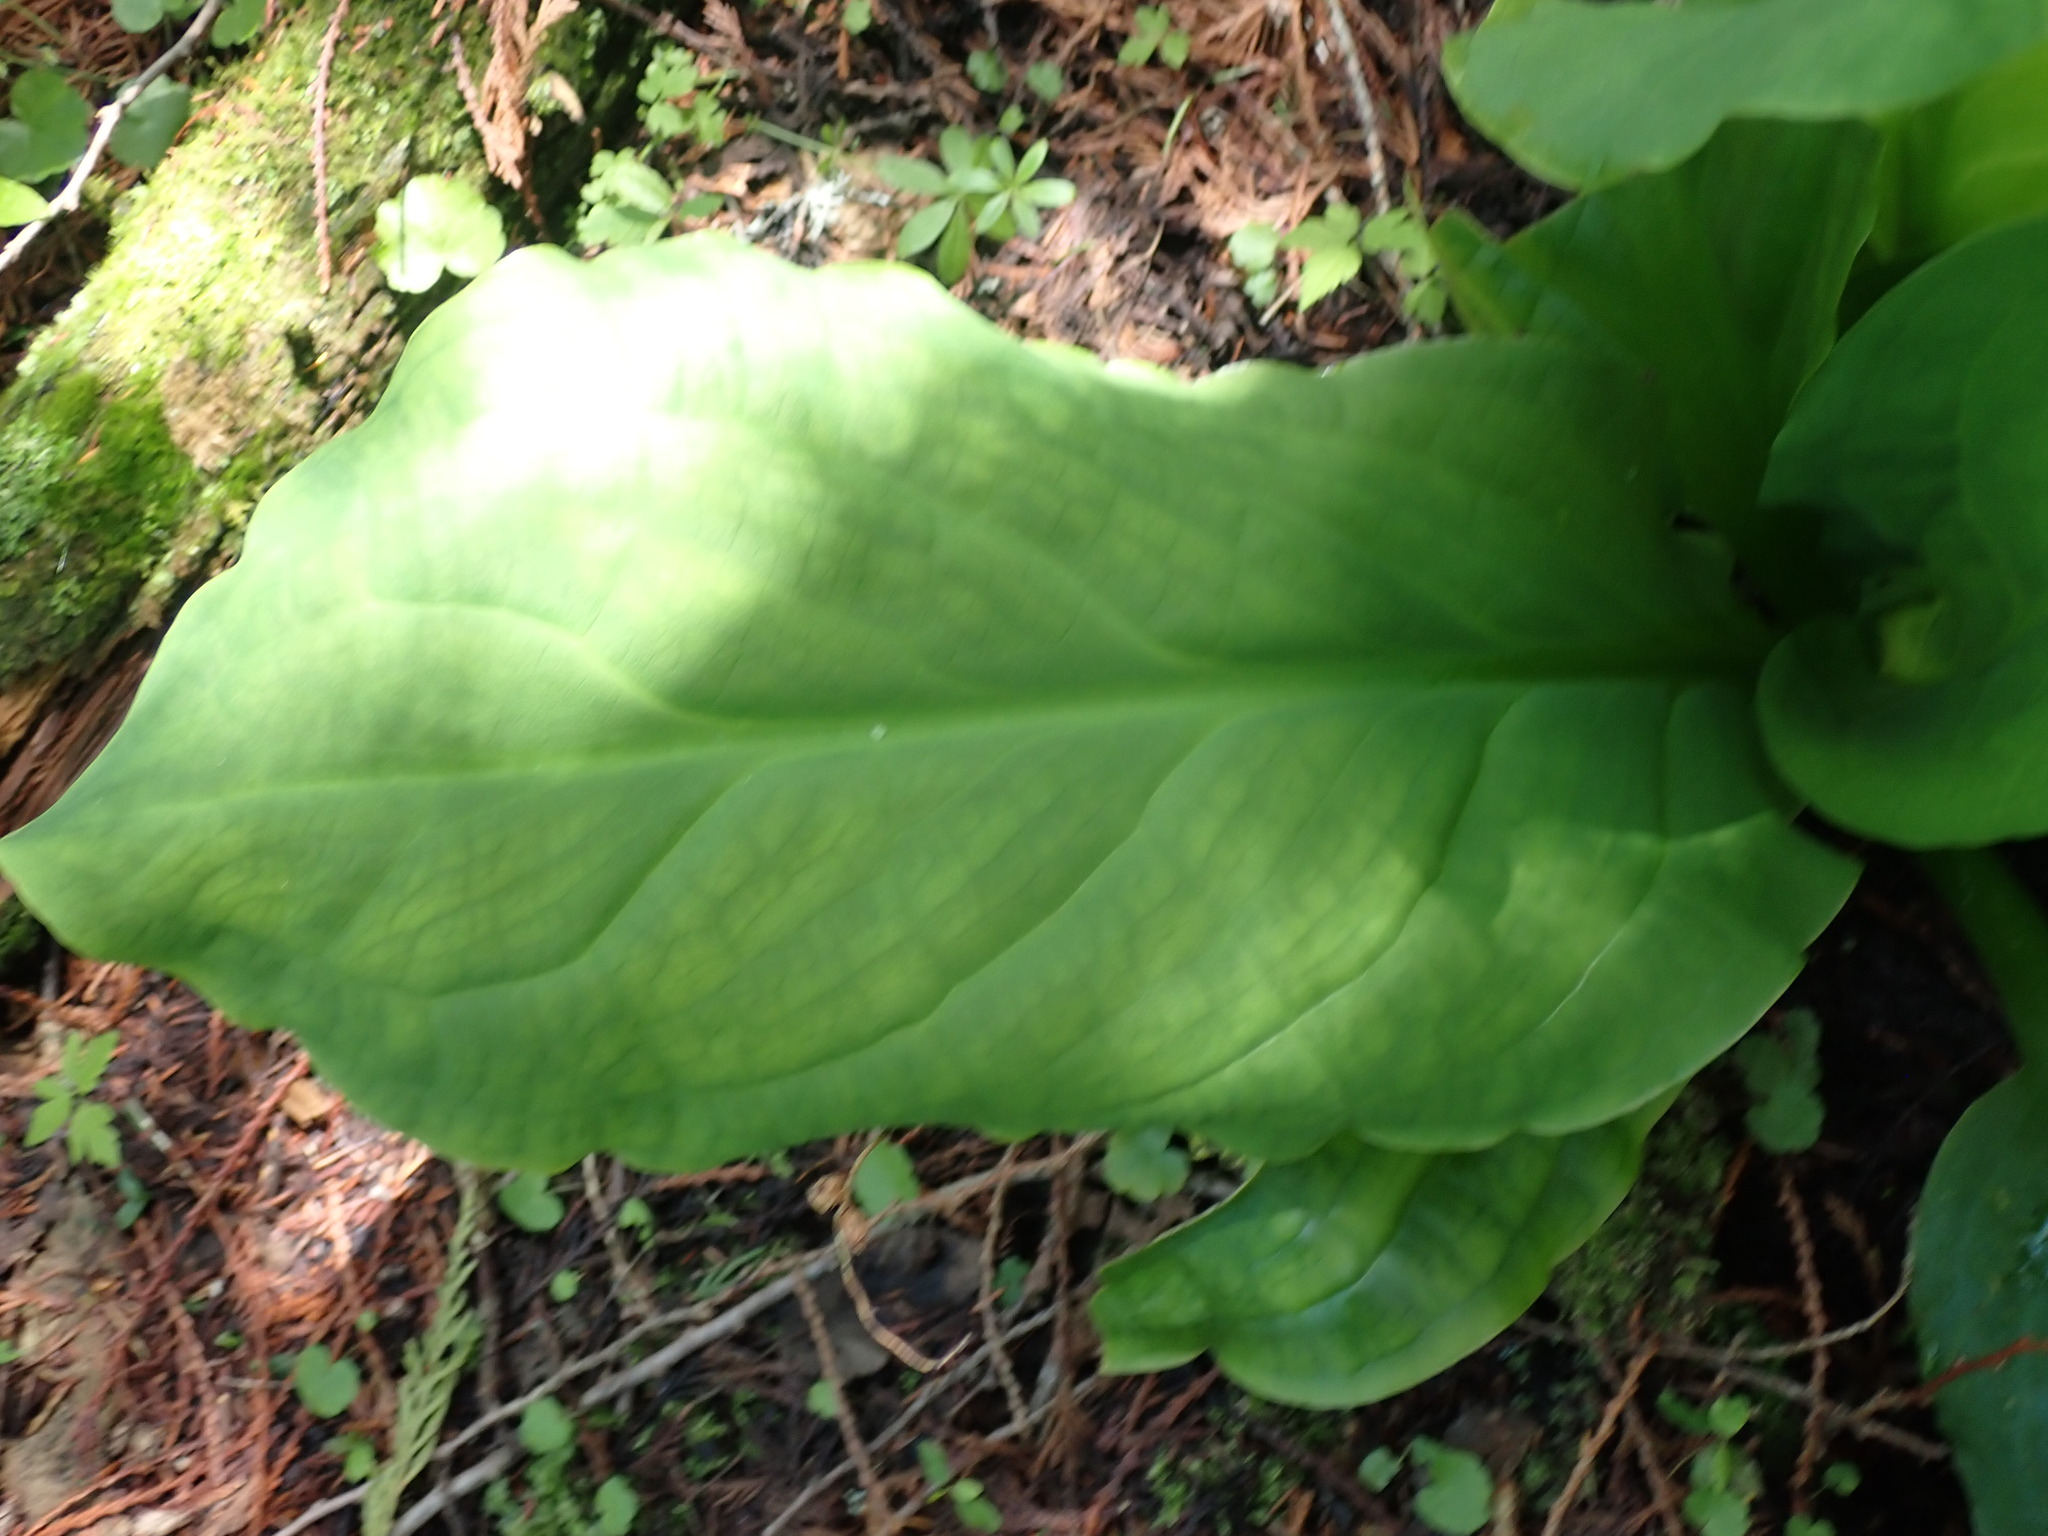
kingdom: Plantae
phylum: Tracheophyta
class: Liliopsida
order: Alismatales
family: Araceae
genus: Lysichiton
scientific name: Lysichiton americanus
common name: American skunk cabbage
